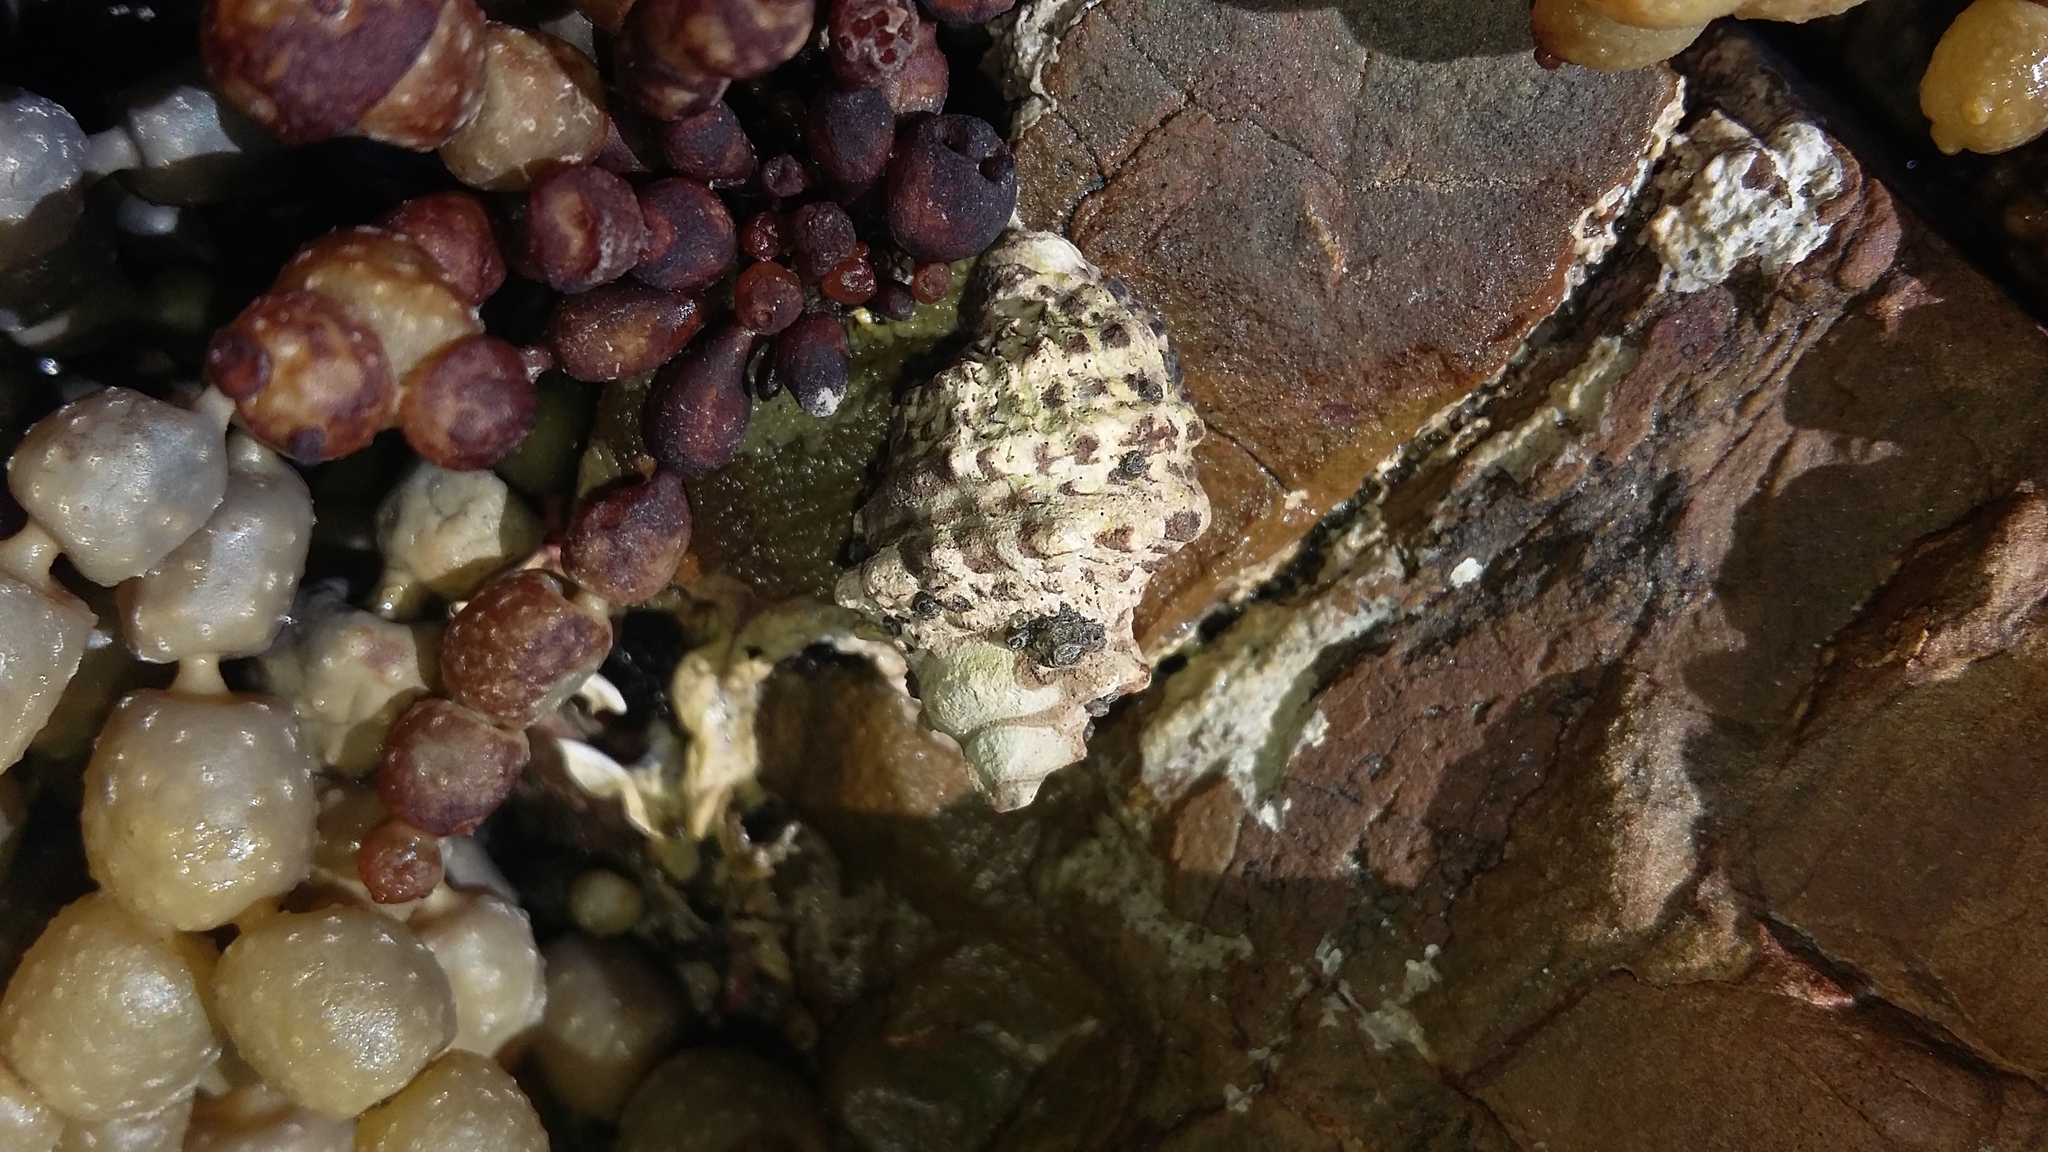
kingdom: Animalia
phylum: Mollusca
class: Gastropoda
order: Neogastropoda
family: Muricidae
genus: Haustrum
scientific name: Haustrum scobina
